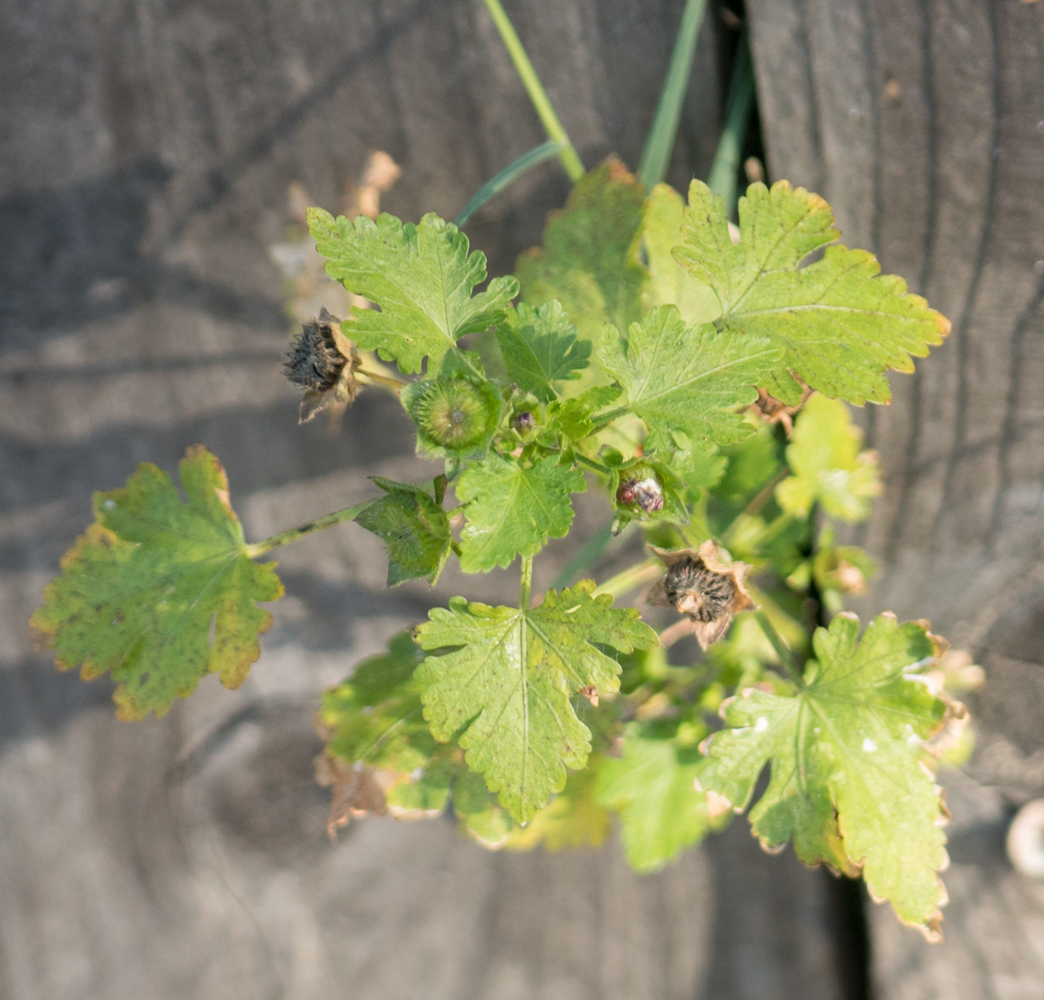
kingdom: Plantae
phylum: Tracheophyta
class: Magnoliopsida
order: Malvales
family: Malvaceae
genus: Modiola
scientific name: Modiola caroliniana
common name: Carolina bristlemallow
